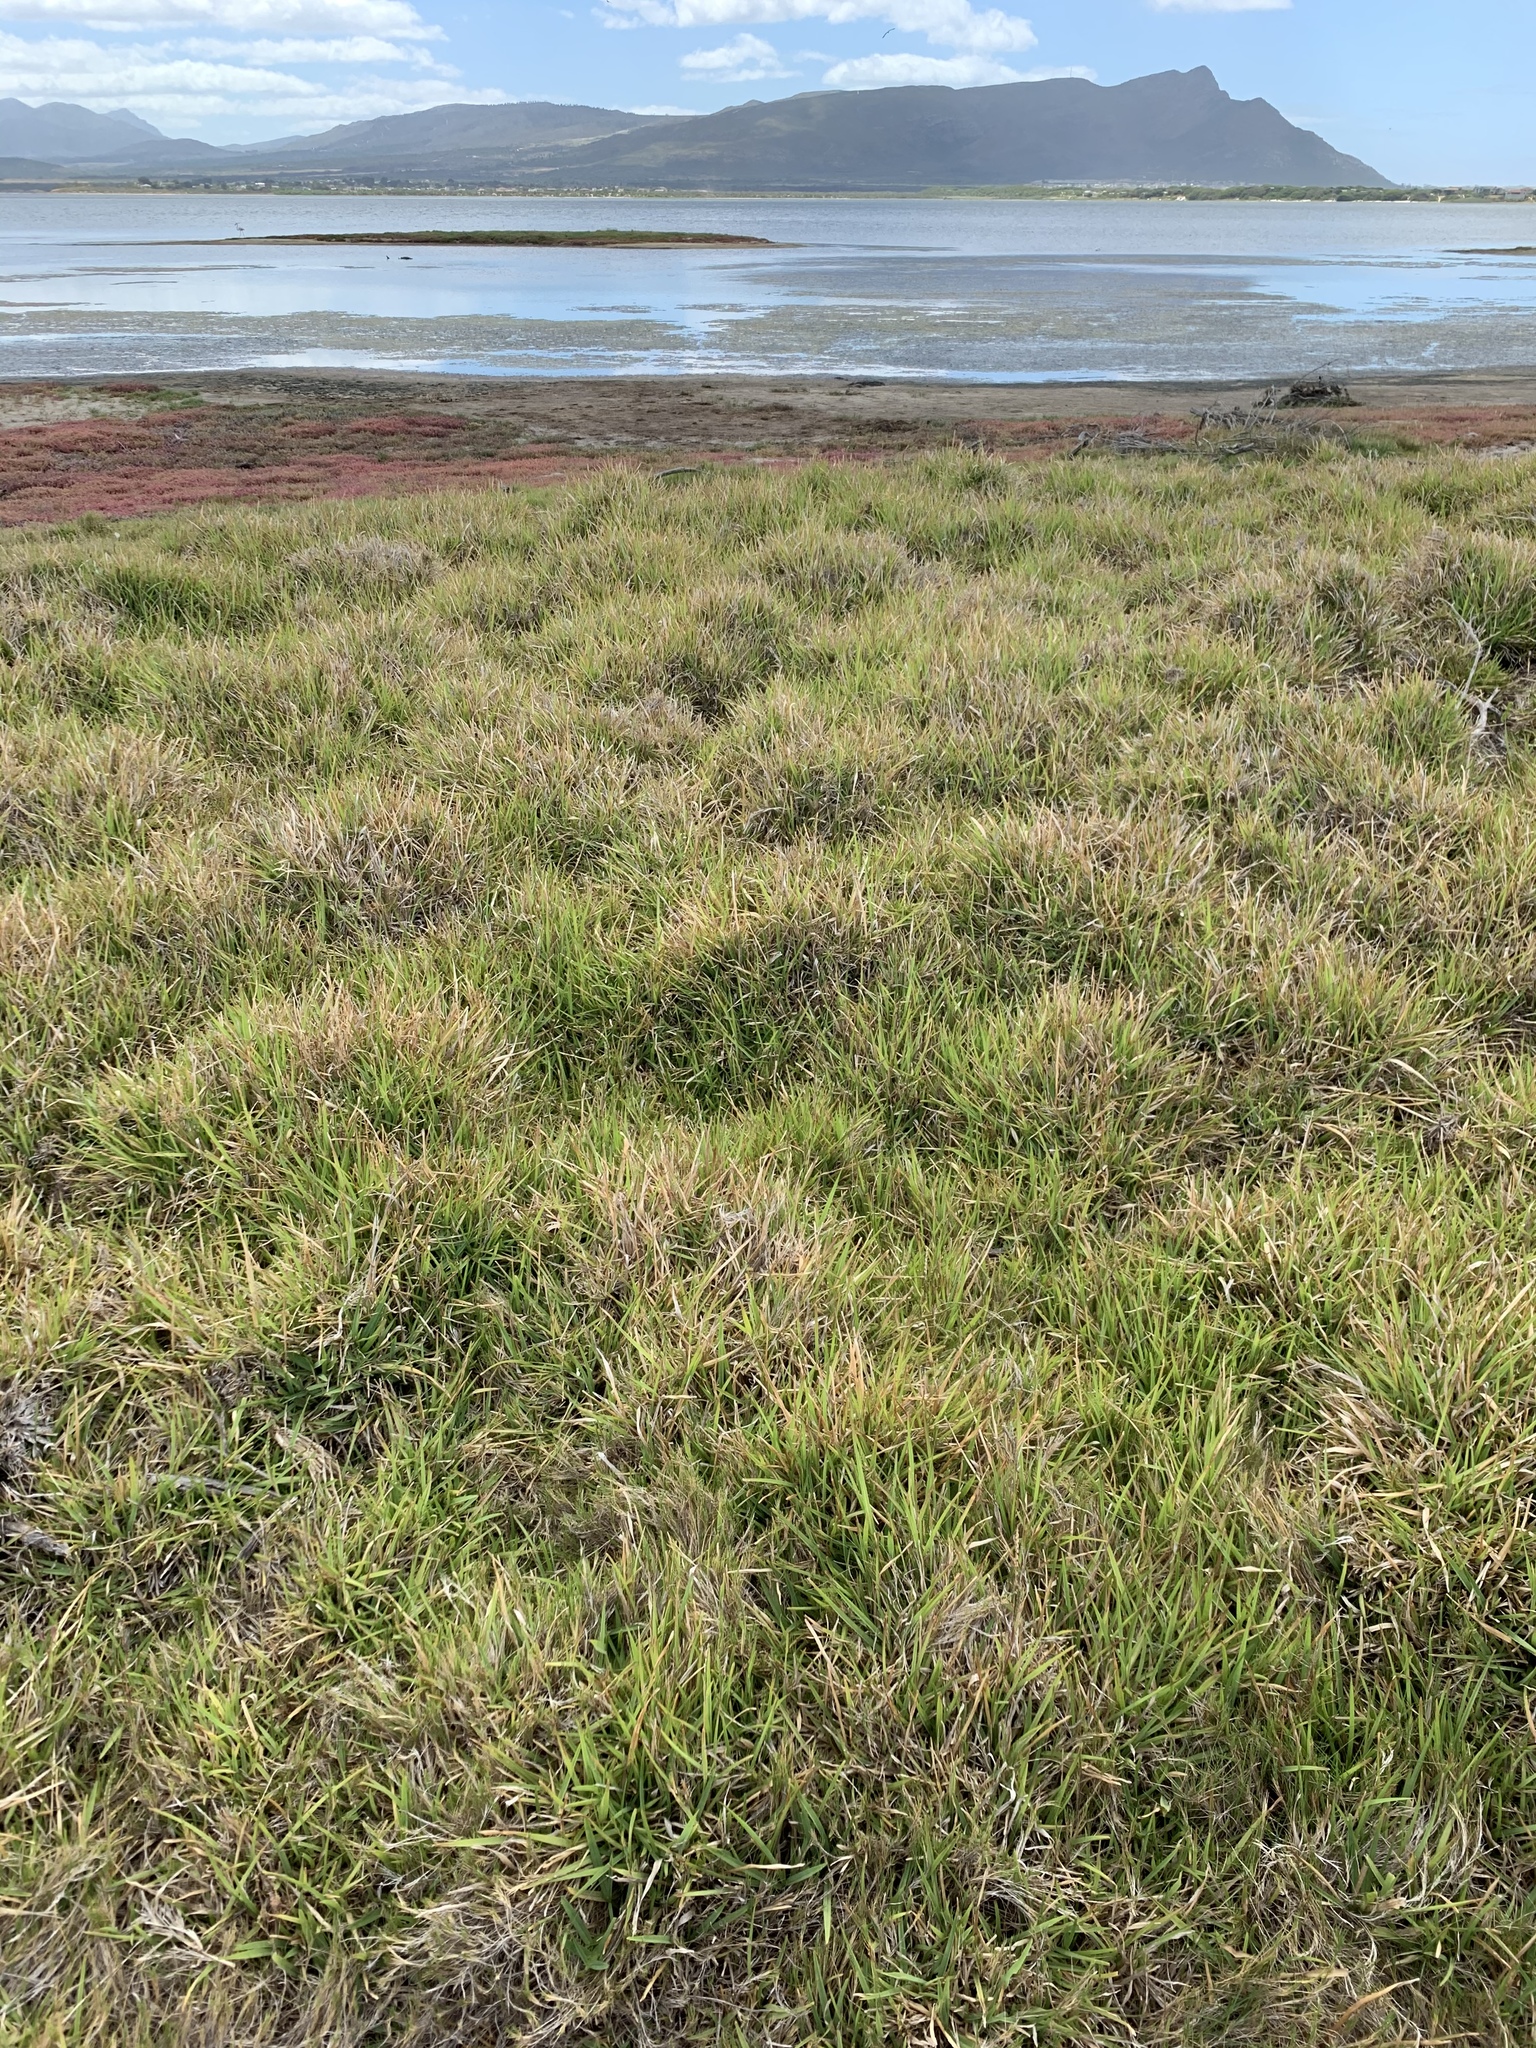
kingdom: Plantae
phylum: Tracheophyta
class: Liliopsida
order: Poales
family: Poaceae
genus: Stenotaphrum
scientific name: Stenotaphrum secundatum
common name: St. augustine grass
